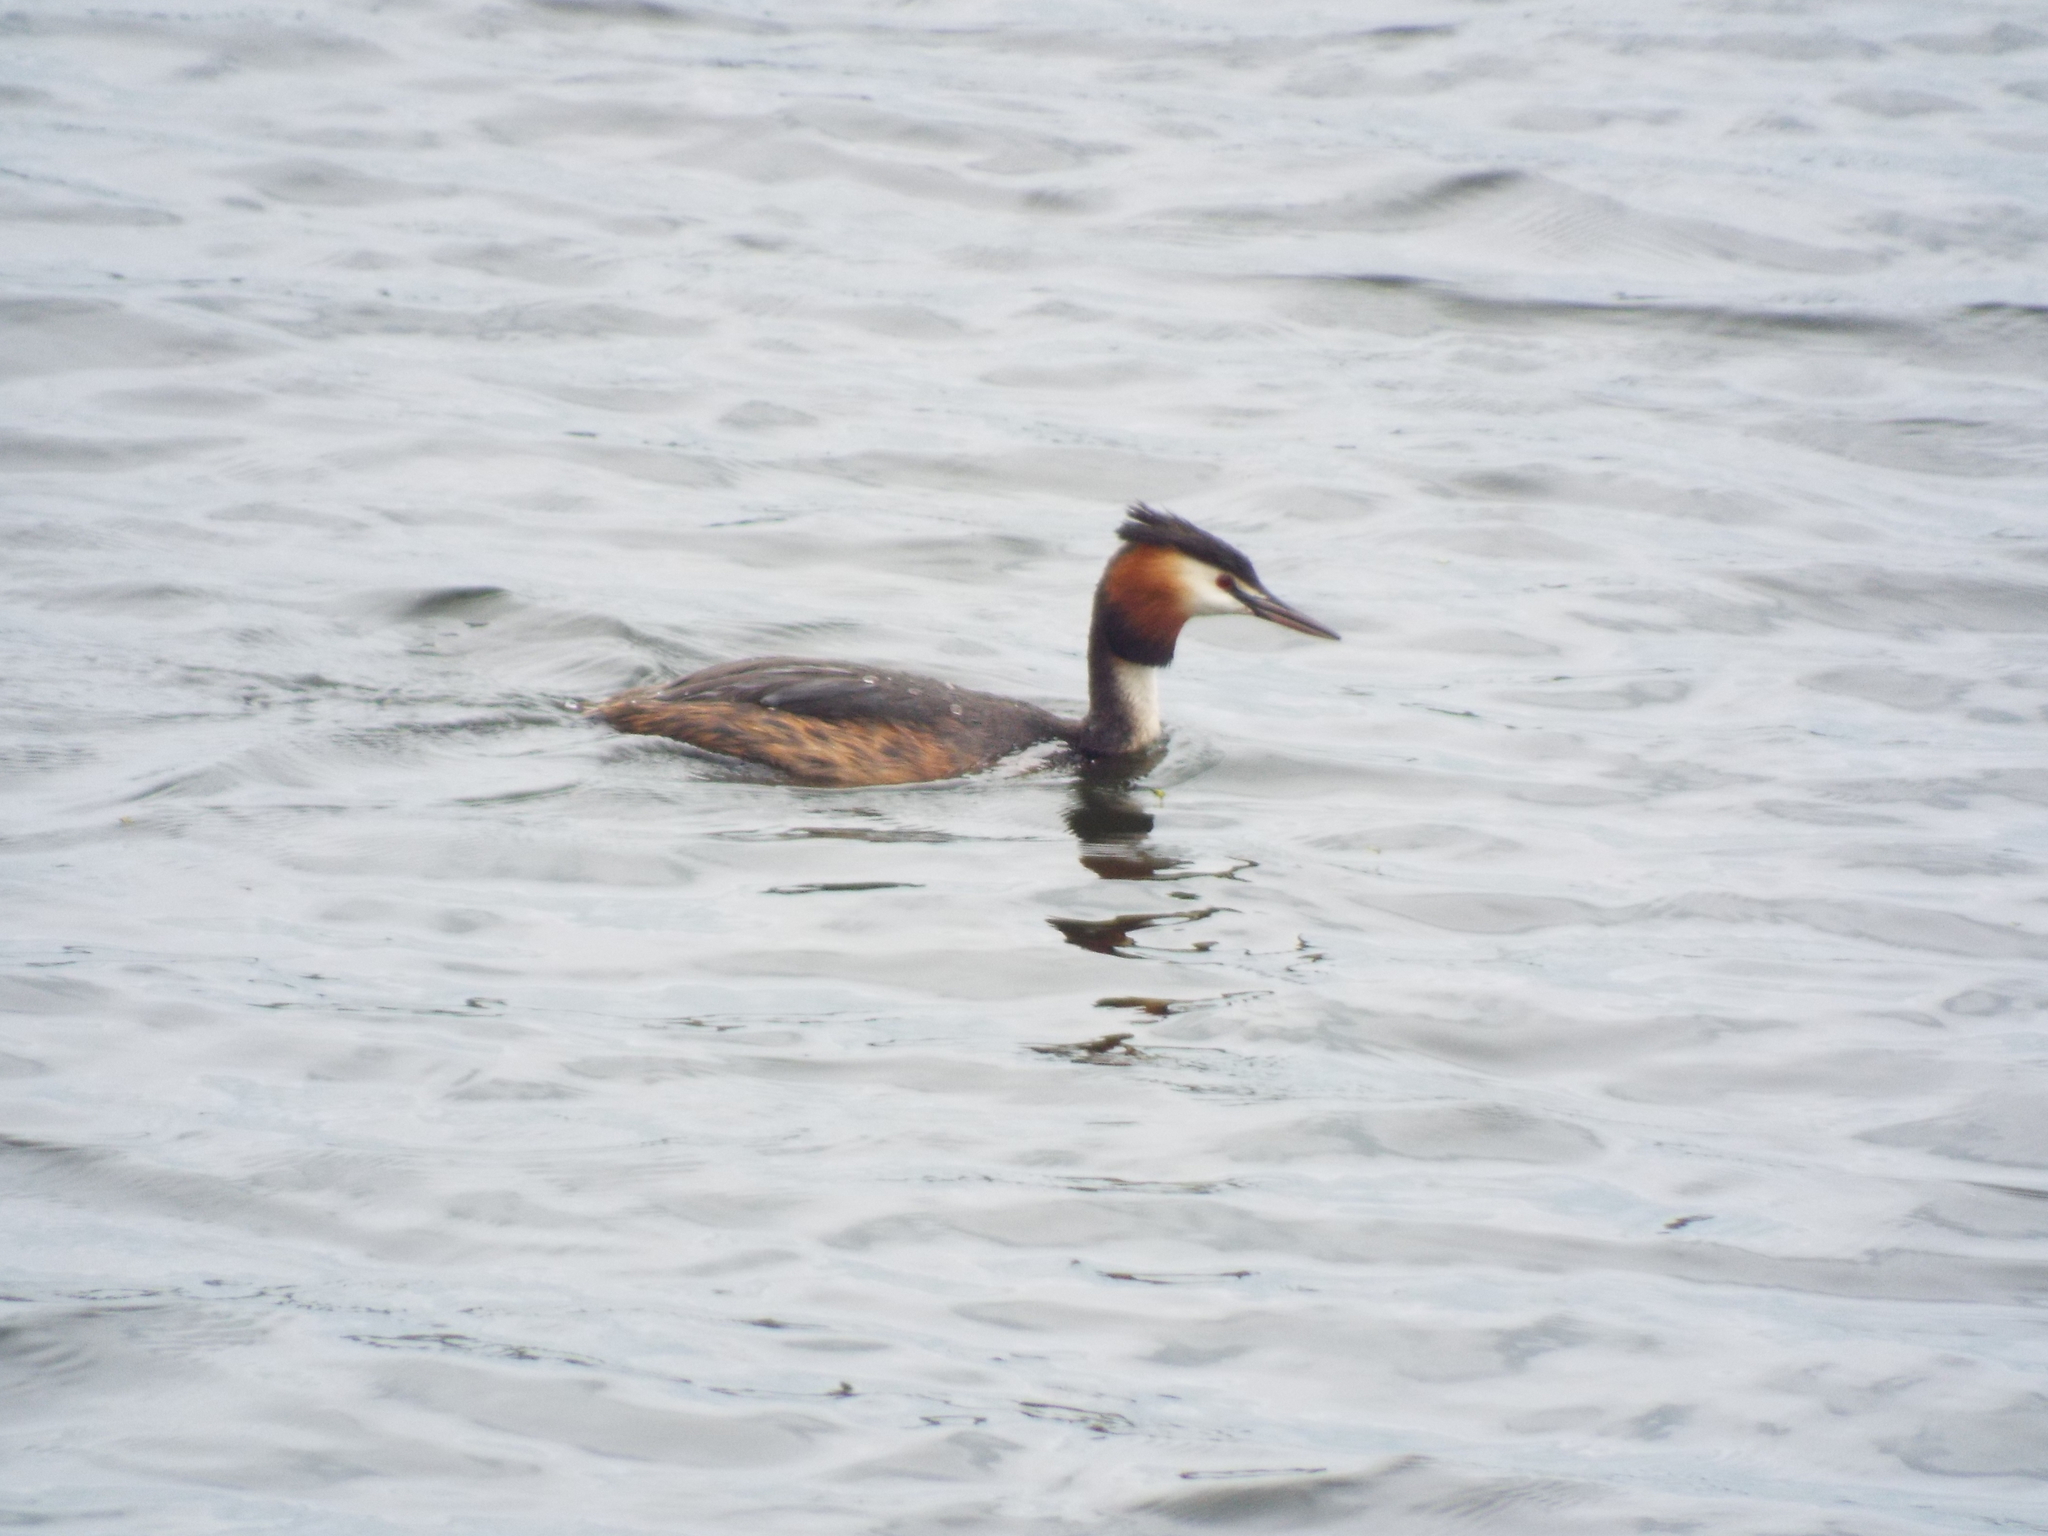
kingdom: Animalia
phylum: Chordata
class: Aves
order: Podicipediformes
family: Podicipedidae
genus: Podiceps
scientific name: Podiceps cristatus
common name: Great crested grebe
